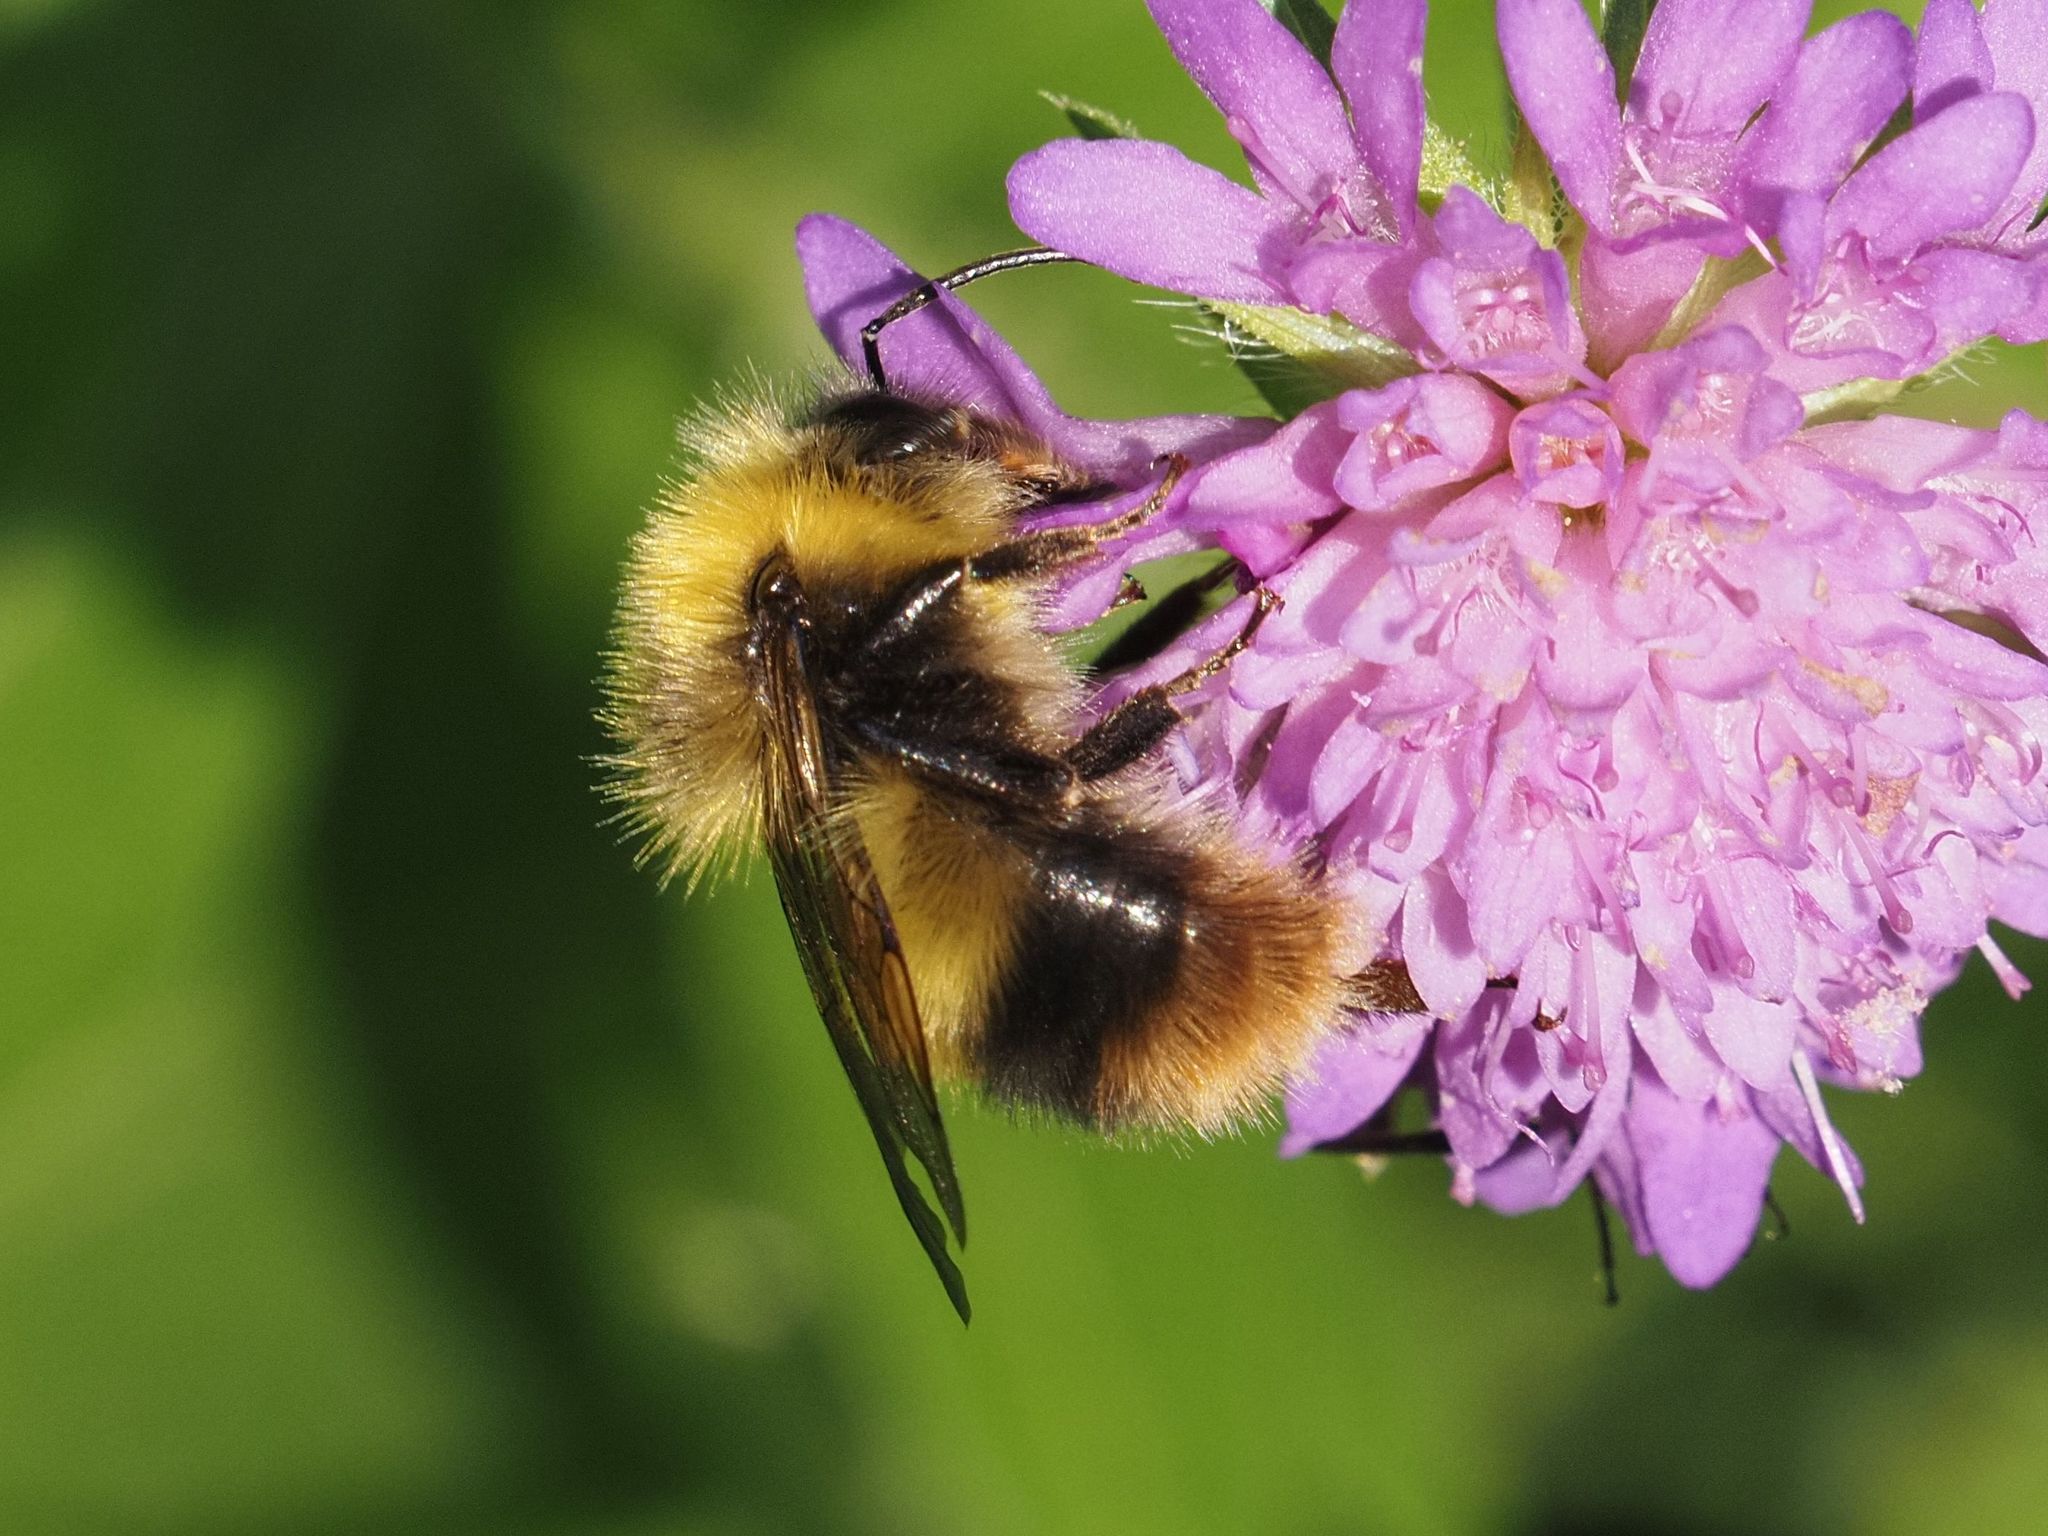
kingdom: Animalia
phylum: Arthropoda
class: Insecta
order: Hymenoptera
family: Apidae
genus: Bombus
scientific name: Bombus pratorum
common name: Early humble-bee
